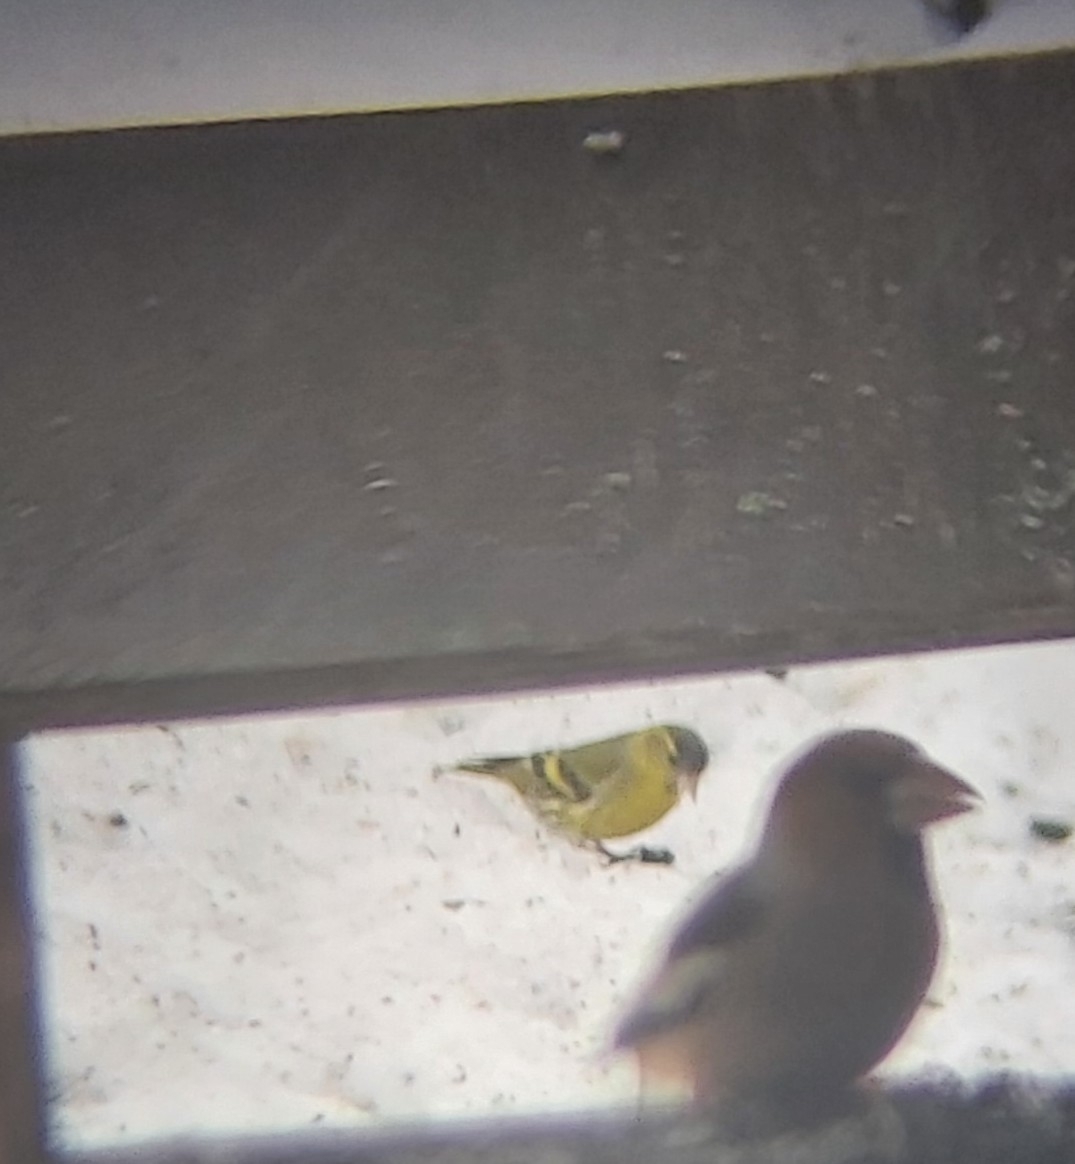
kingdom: Animalia
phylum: Chordata
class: Aves
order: Passeriformes
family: Fringillidae
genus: Spinus
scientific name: Spinus spinus
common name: Eurasian siskin
